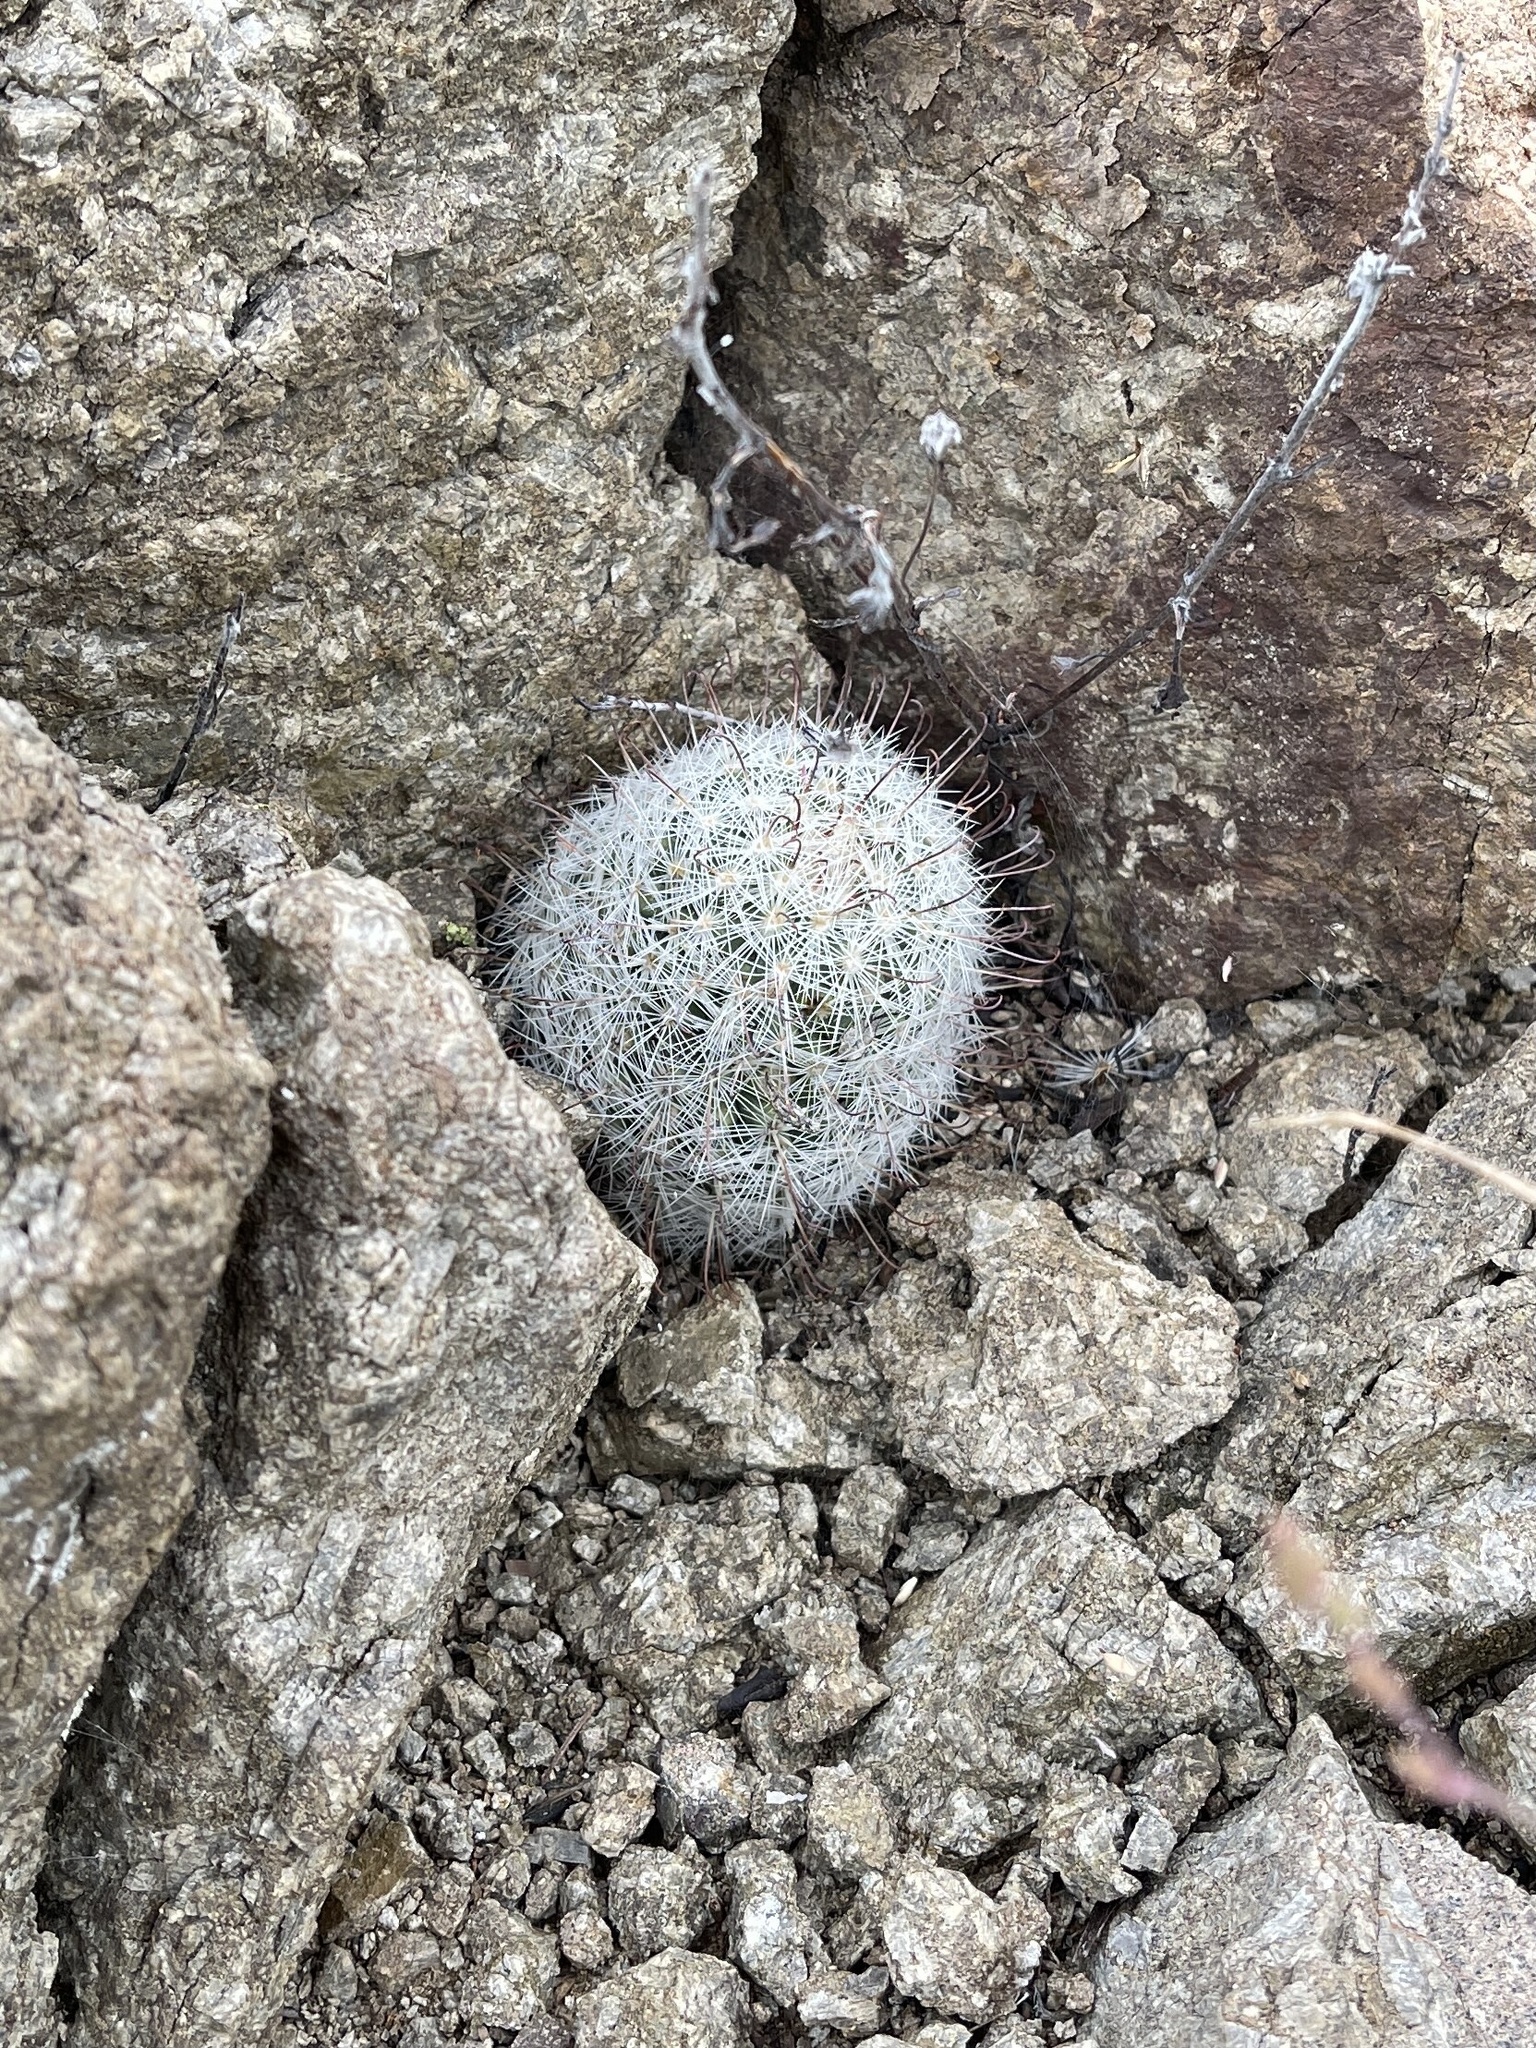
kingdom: Plantae
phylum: Tracheophyta
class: Magnoliopsida
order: Caryophyllales
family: Cactaceae
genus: Cochemiea
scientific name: Cochemiea grahamii
